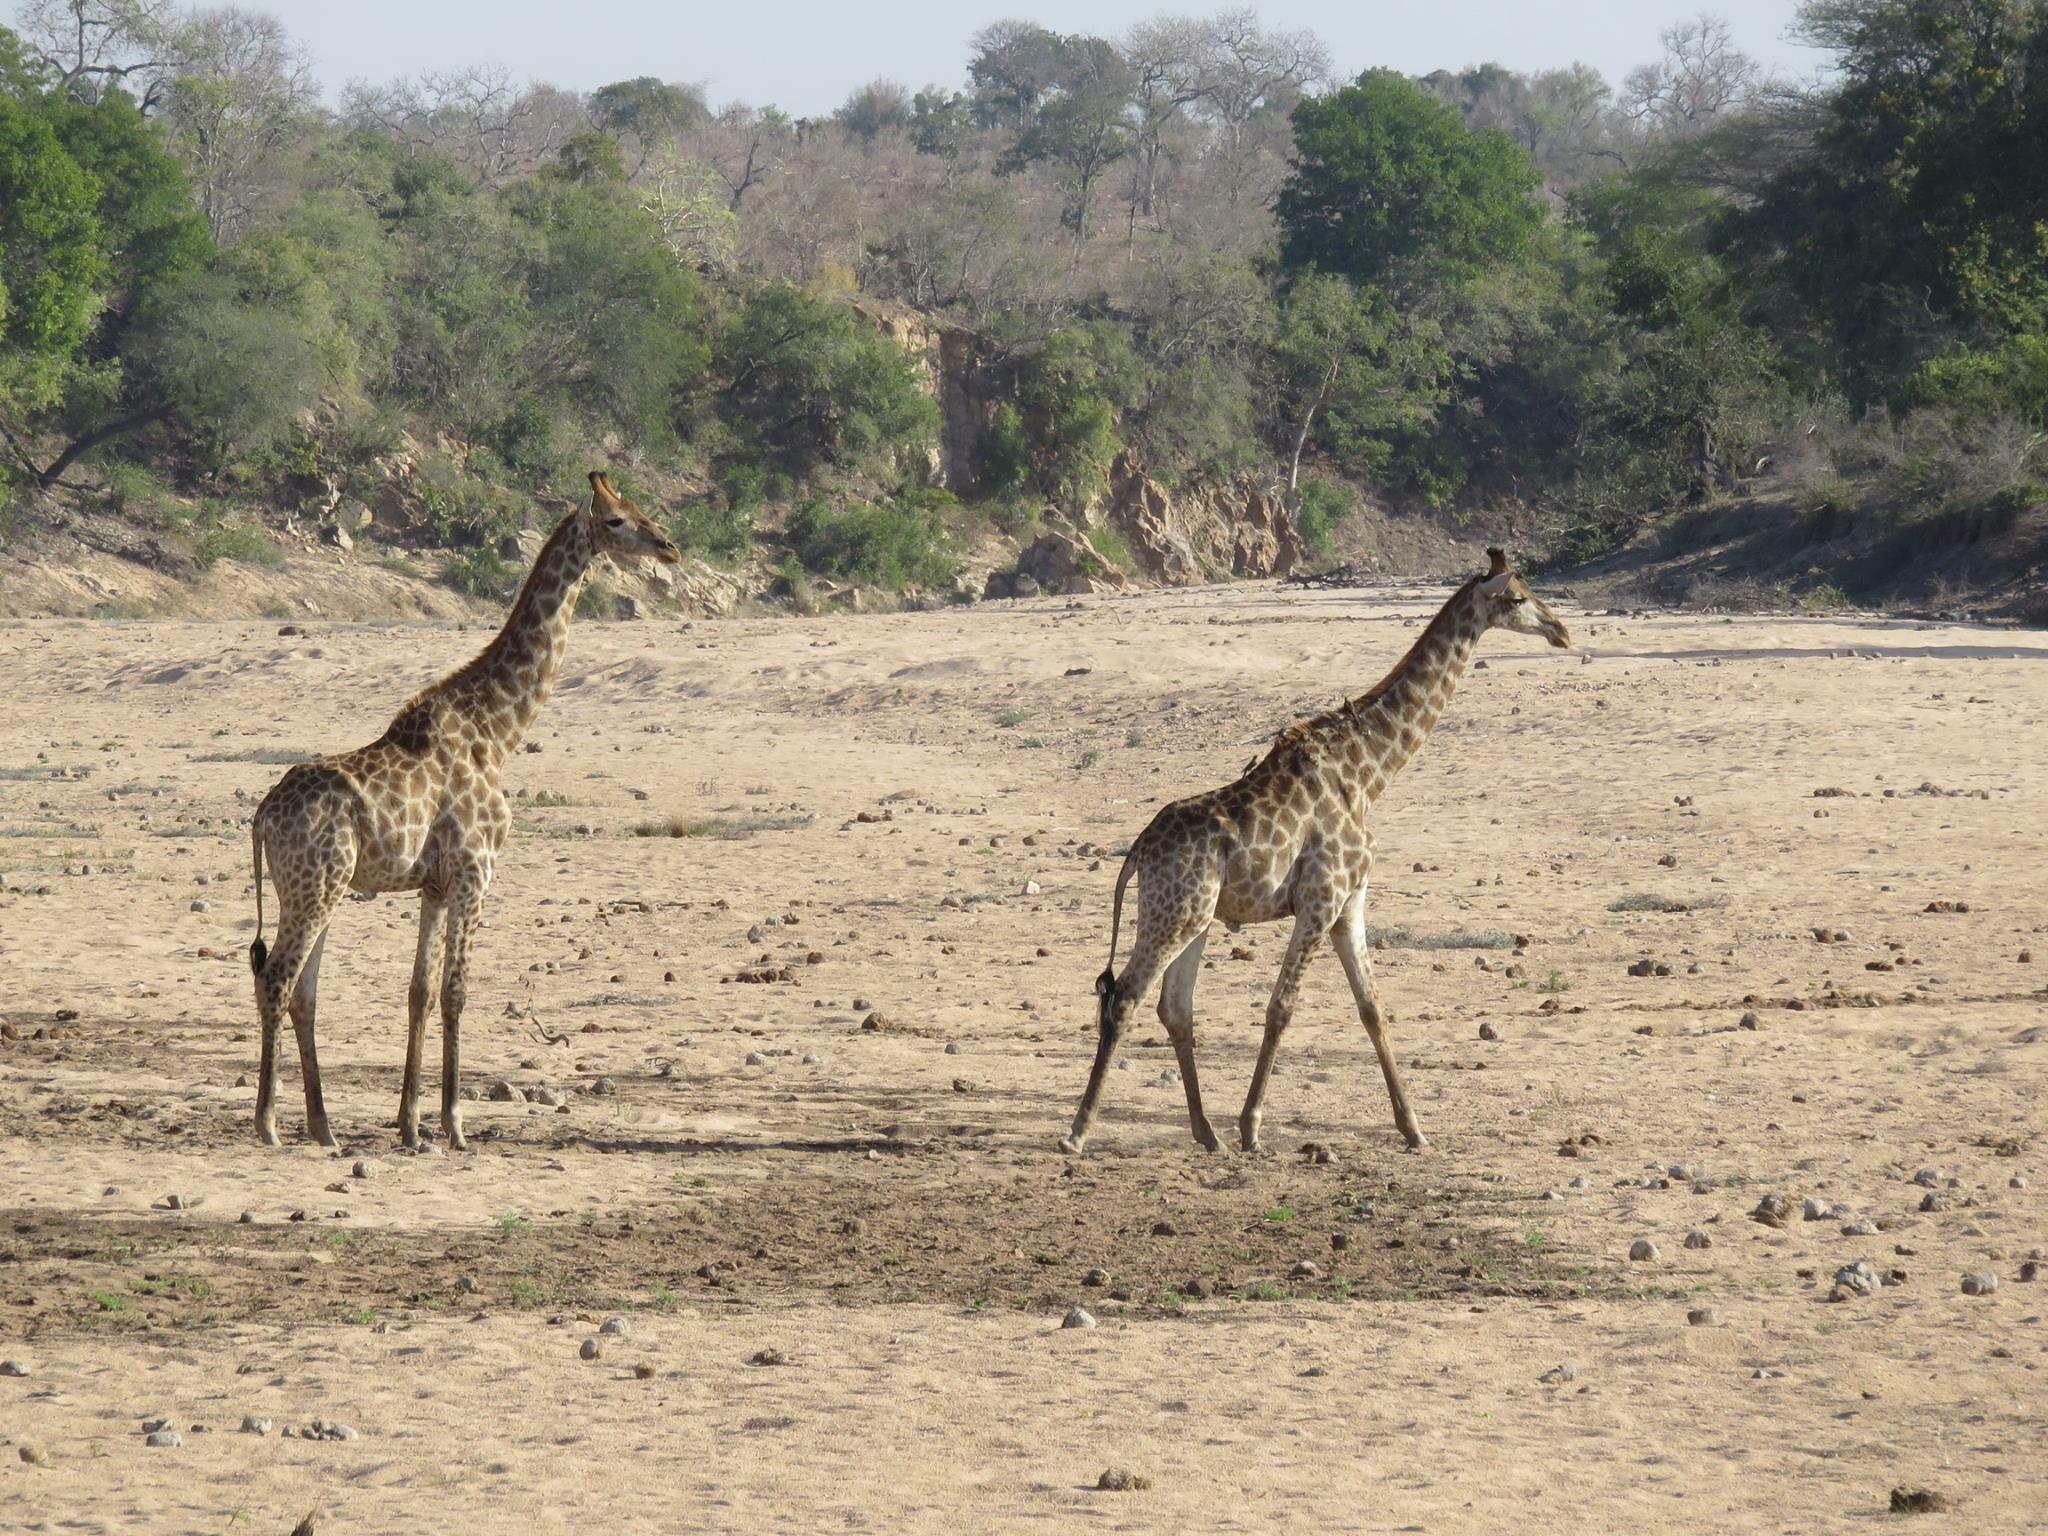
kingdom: Animalia
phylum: Chordata
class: Mammalia
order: Artiodactyla
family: Giraffidae
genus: Giraffa
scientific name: Giraffa giraffa
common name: Southern giraffe
